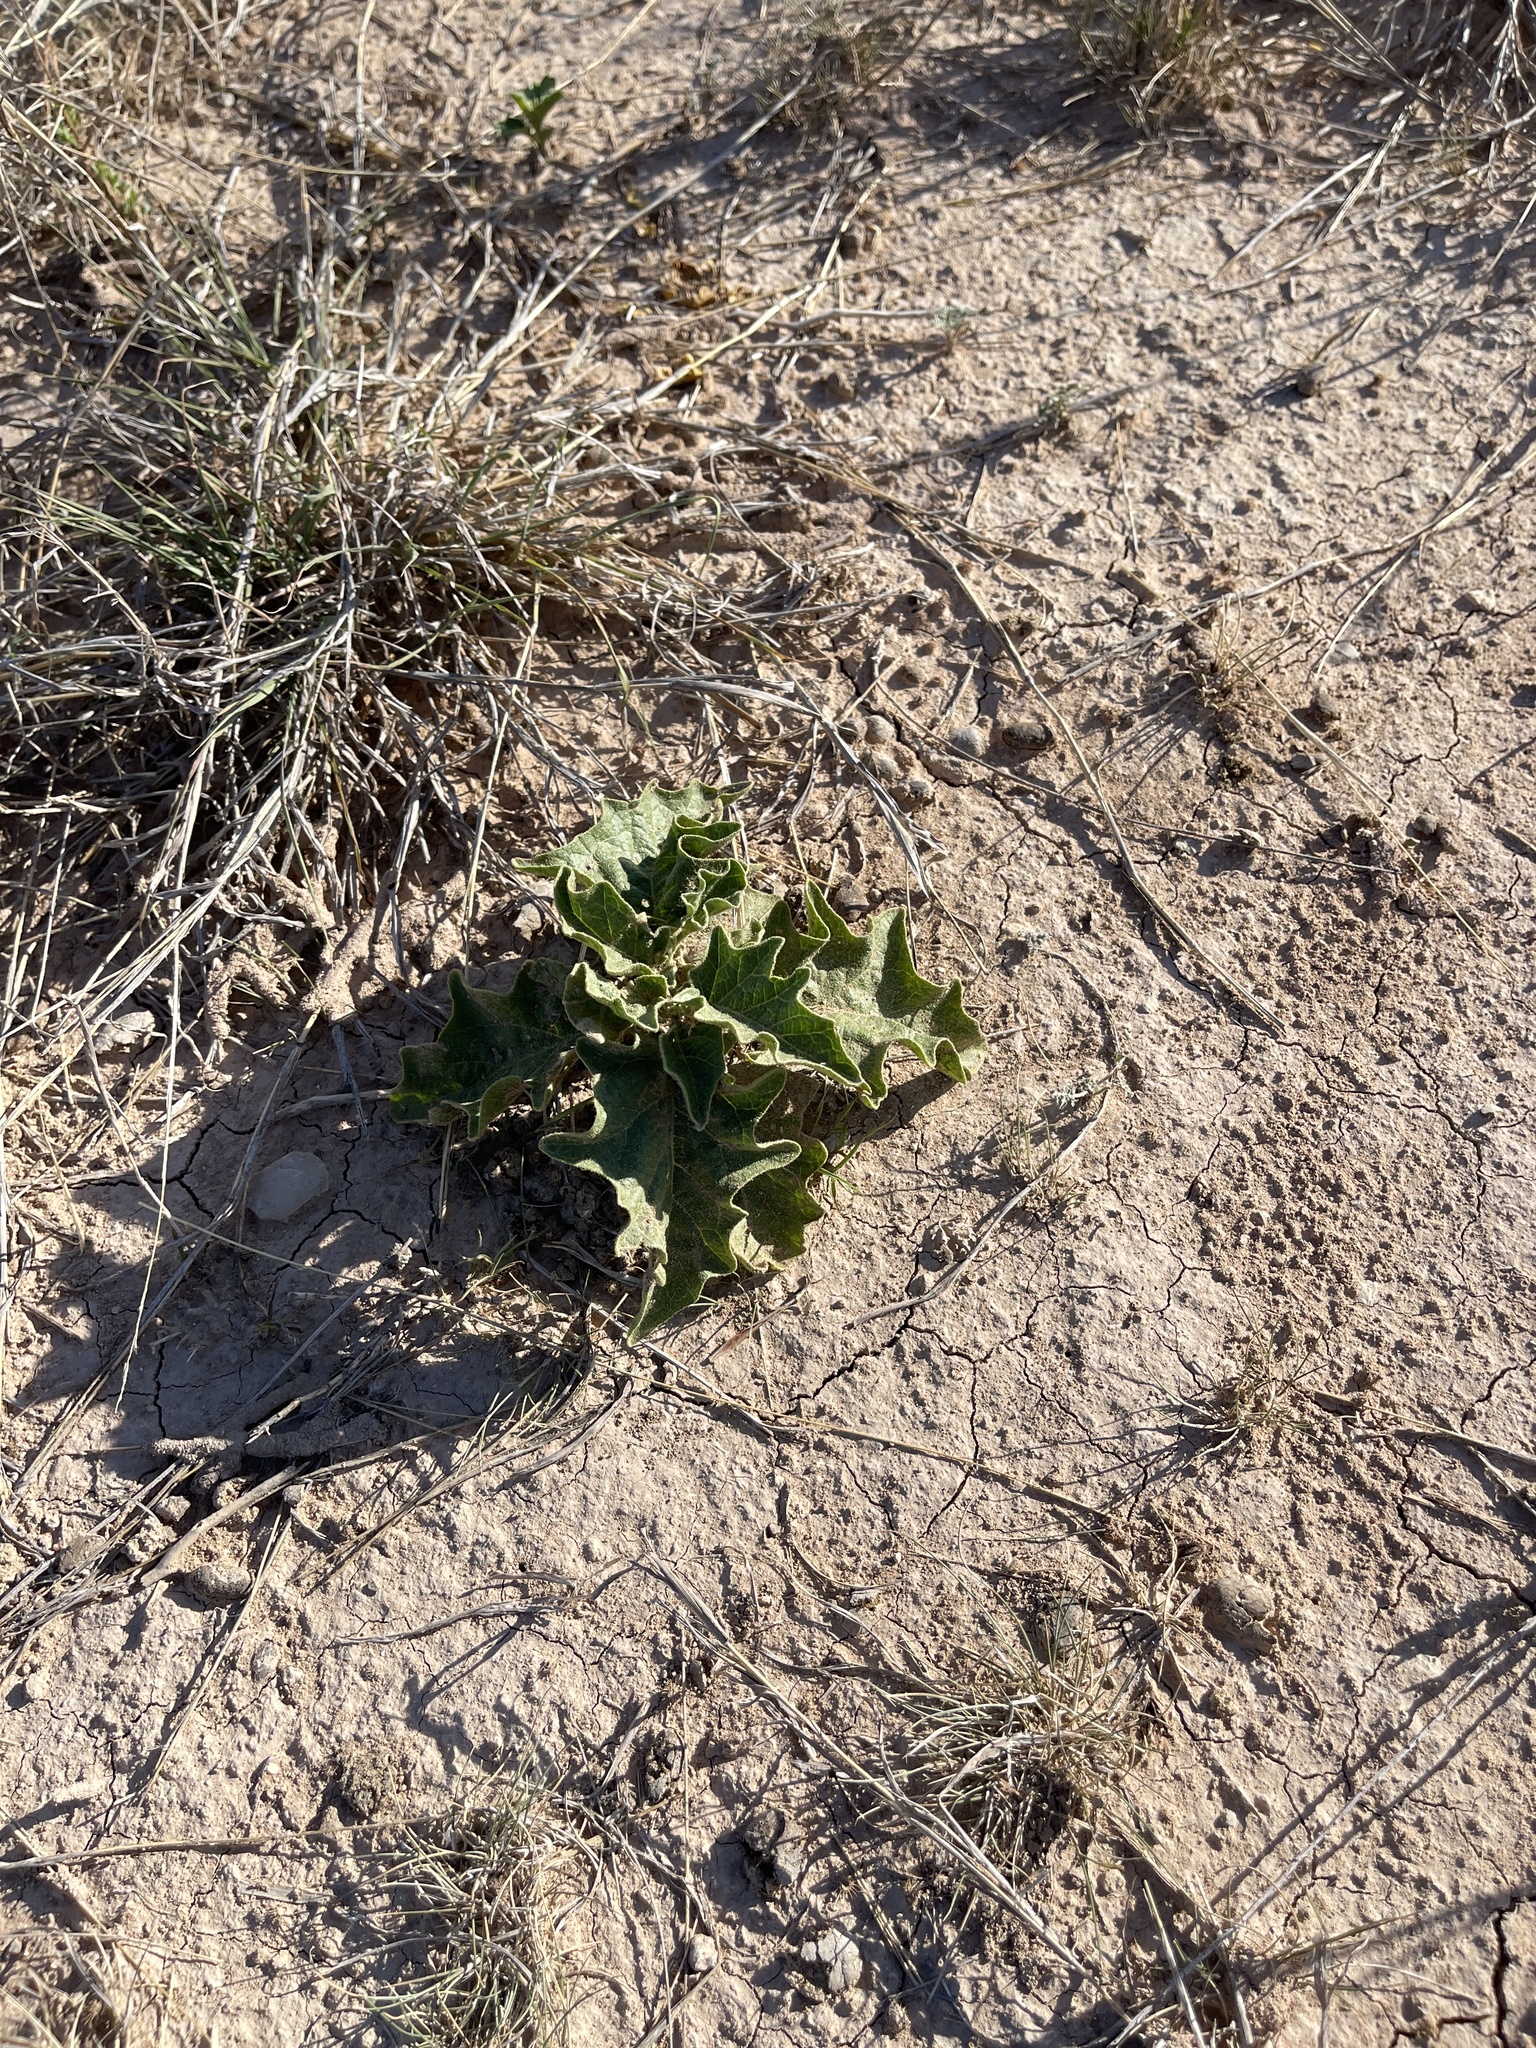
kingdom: Plantae
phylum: Tracheophyta
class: Magnoliopsida
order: Solanales
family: Solanaceae
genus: Solanum
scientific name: Solanum dimidiatum
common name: Carolina horse-nettle
